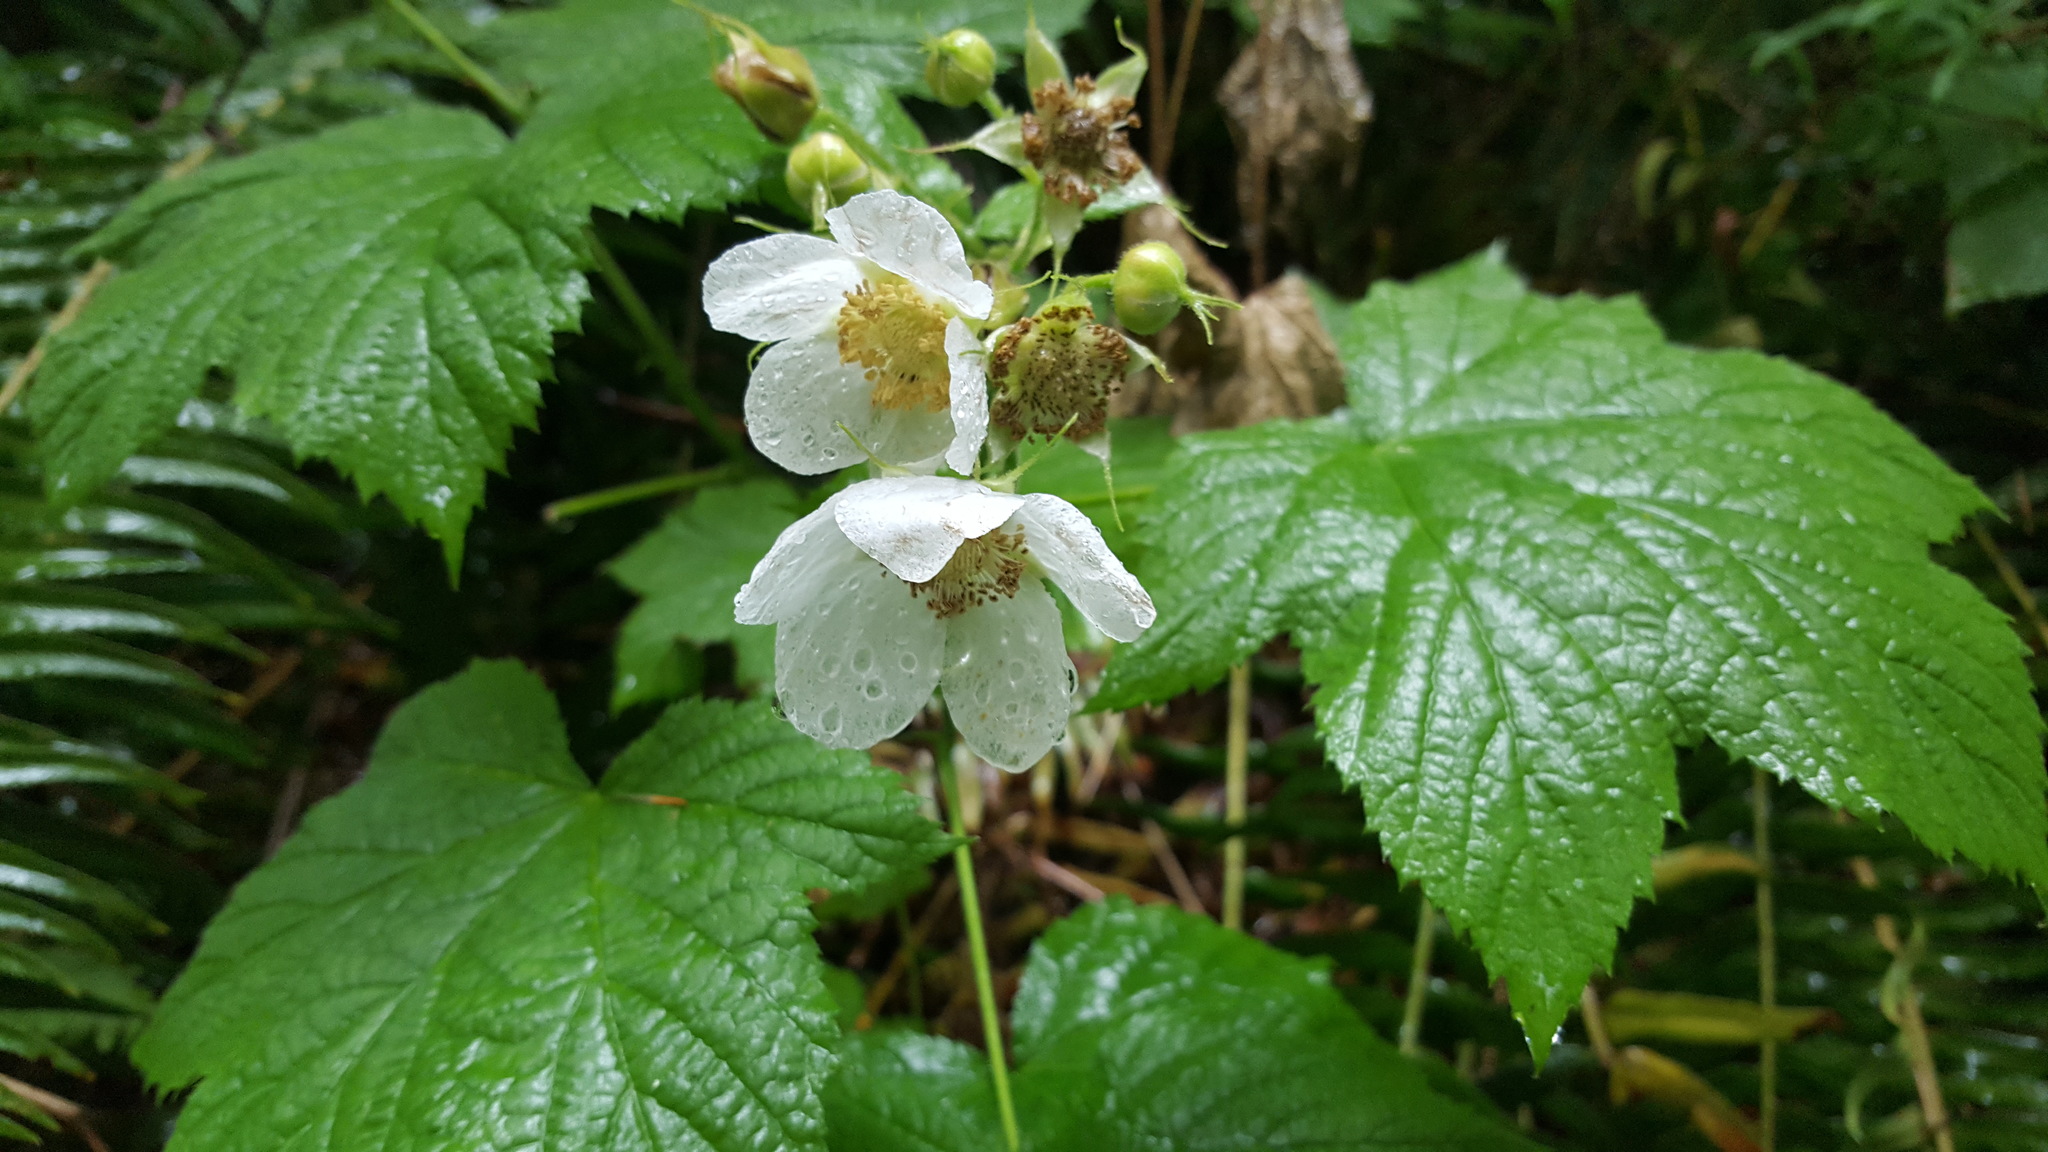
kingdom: Plantae
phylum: Tracheophyta
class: Magnoliopsida
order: Rosales
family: Rosaceae
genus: Rubus
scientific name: Rubus parviflorus
